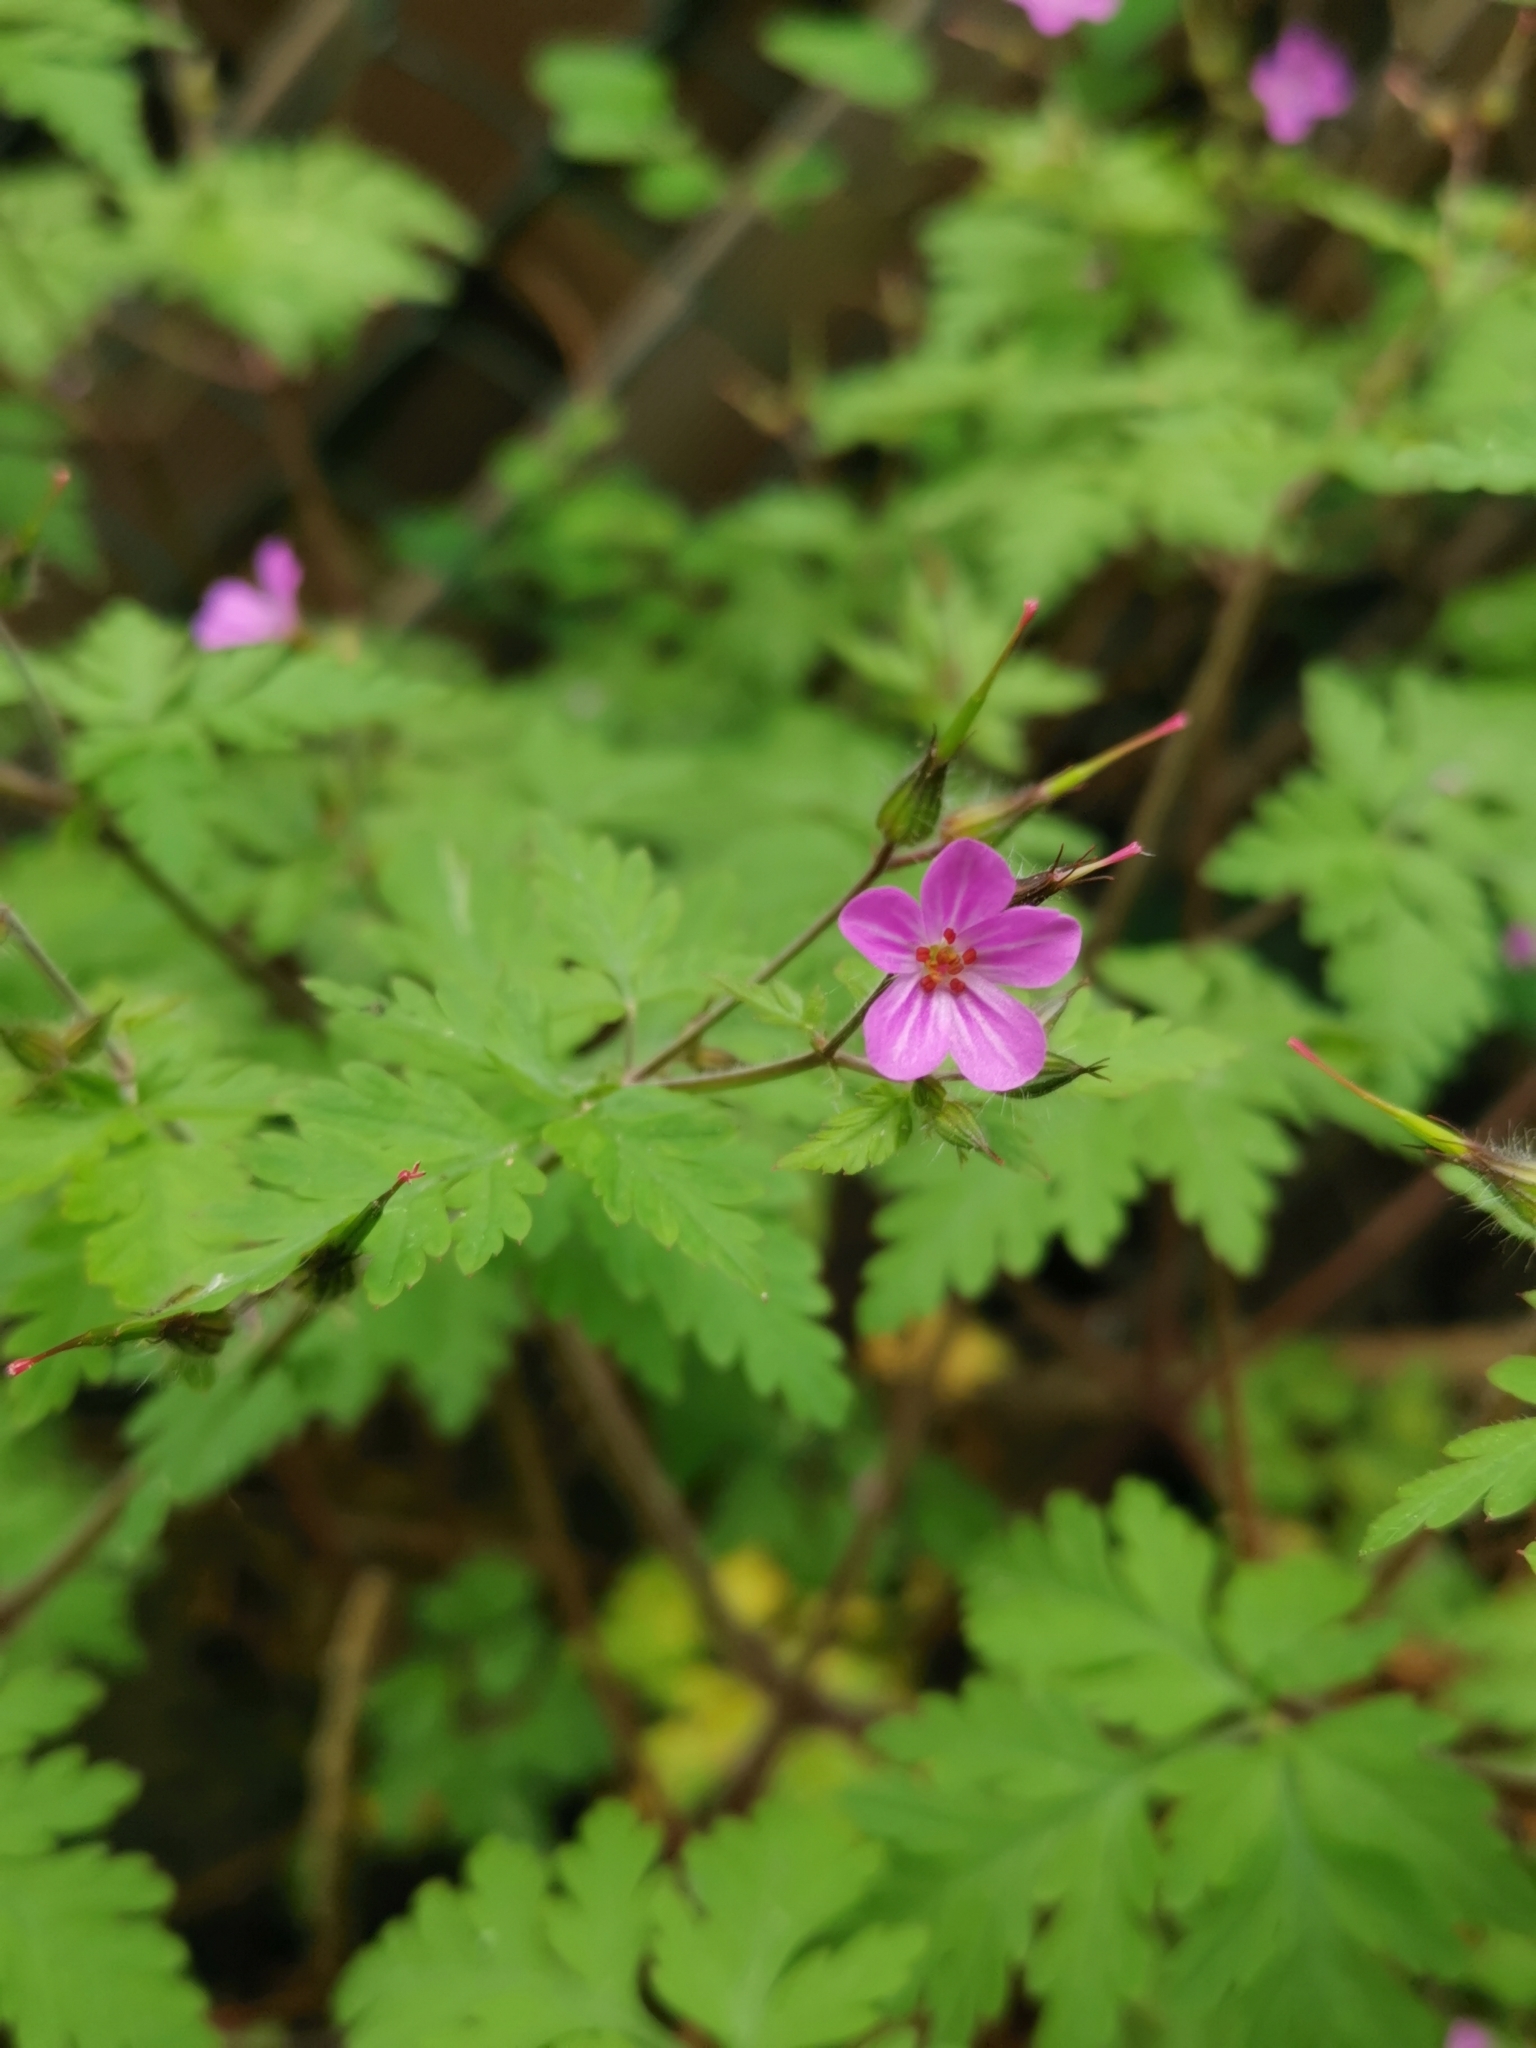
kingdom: Plantae
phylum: Tracheophyta
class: Magnoliopsida
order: Geraniales
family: Geraniaceae
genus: Geranium
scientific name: Geranium robertianum
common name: Herb-robert
